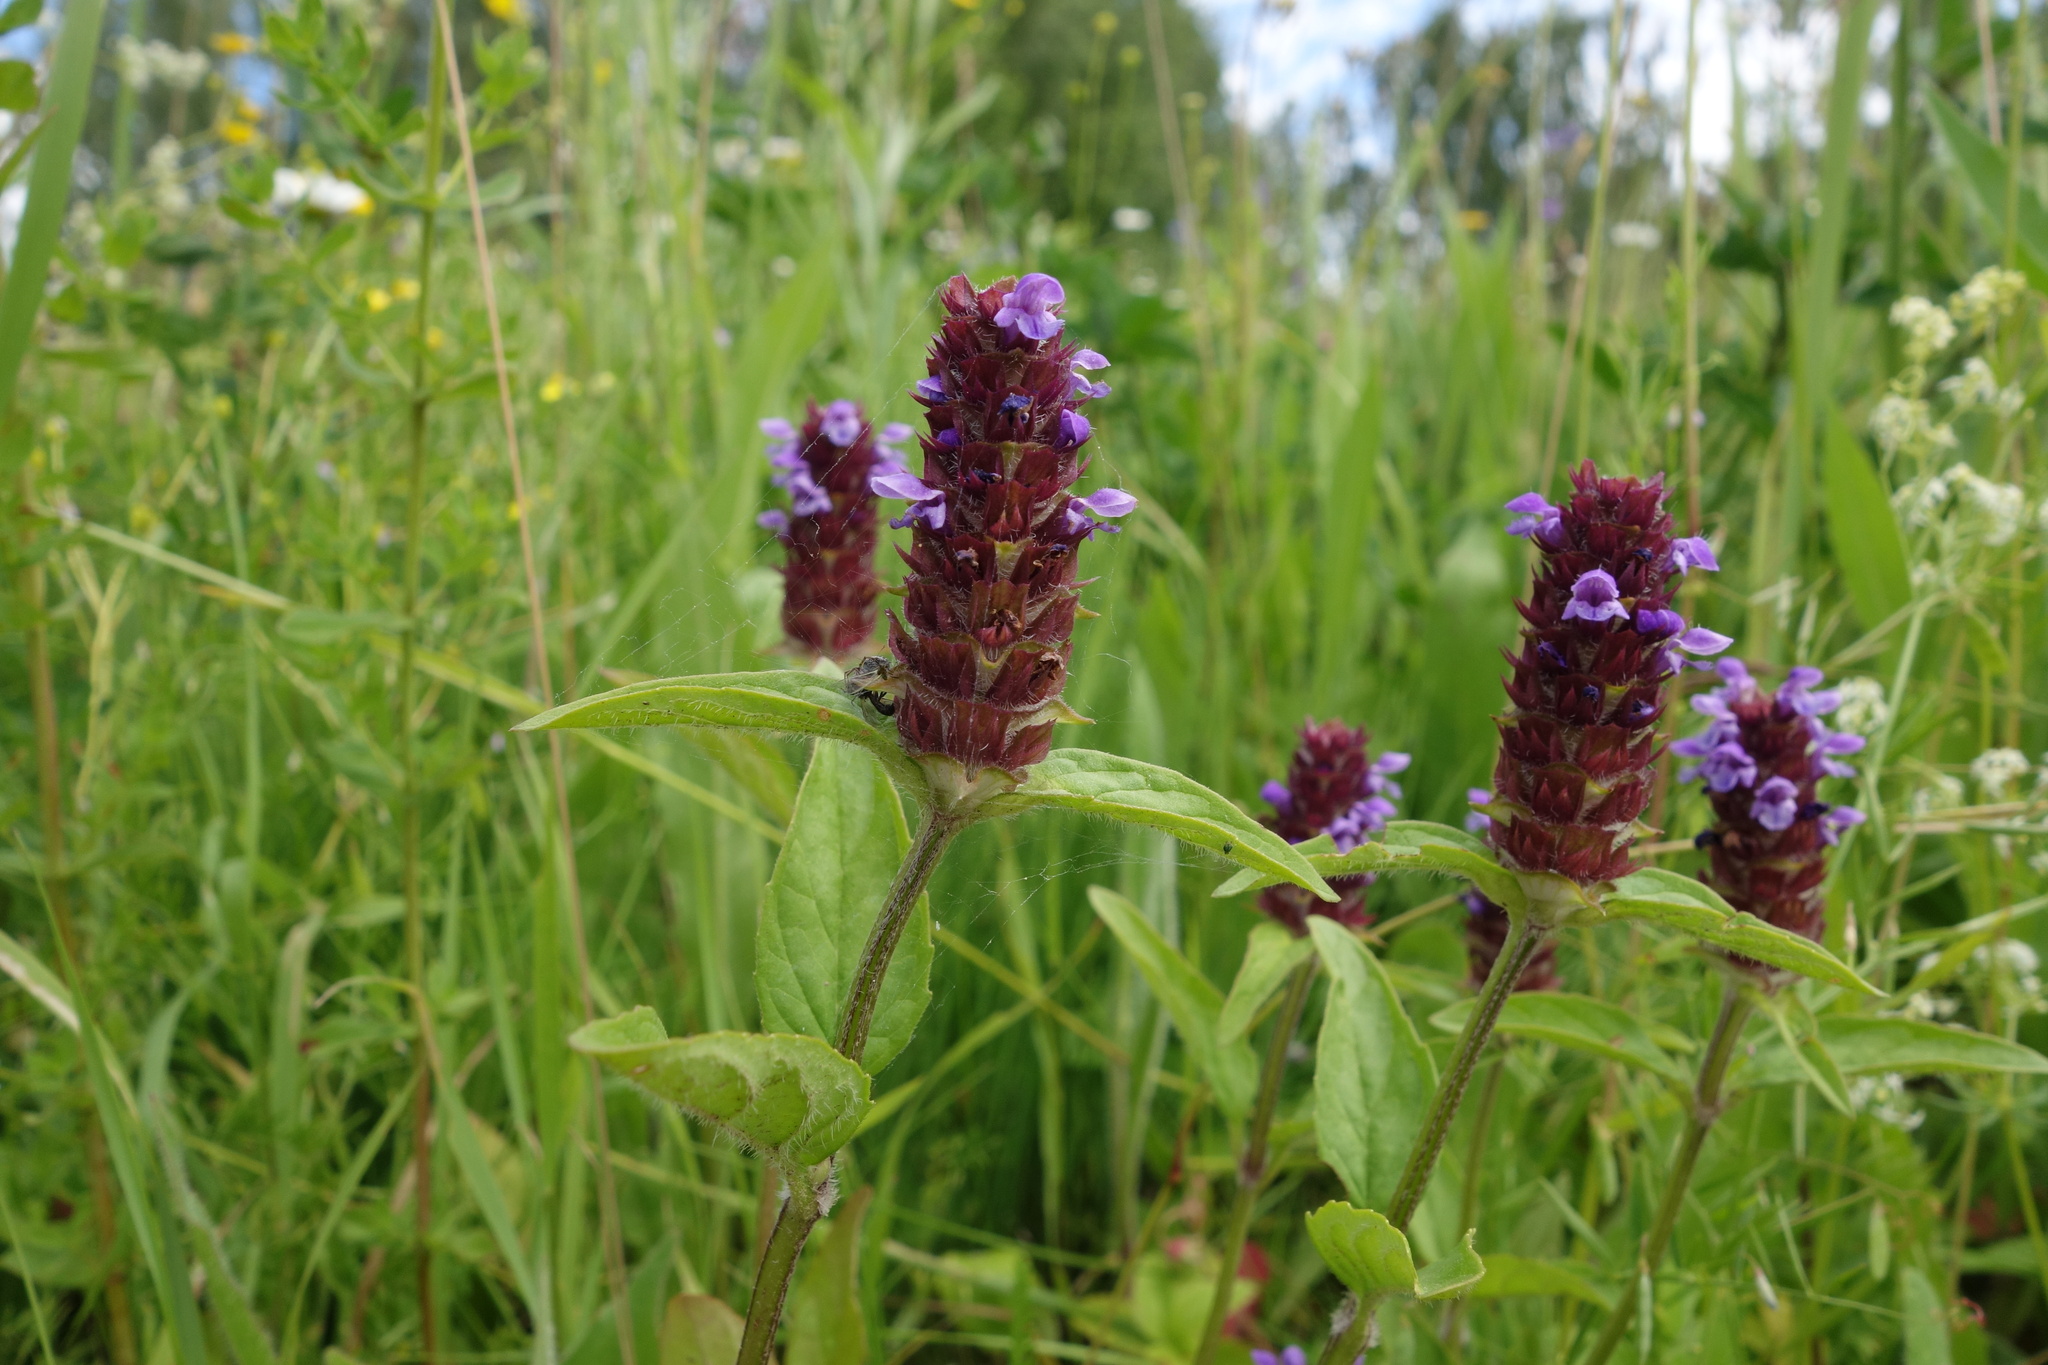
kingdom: Plantae
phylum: Tracheophyta
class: Magnoliopsida
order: Lamiales
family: Lamiaceae
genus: Prunella
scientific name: Prunella vulgaris
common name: Heal-all
